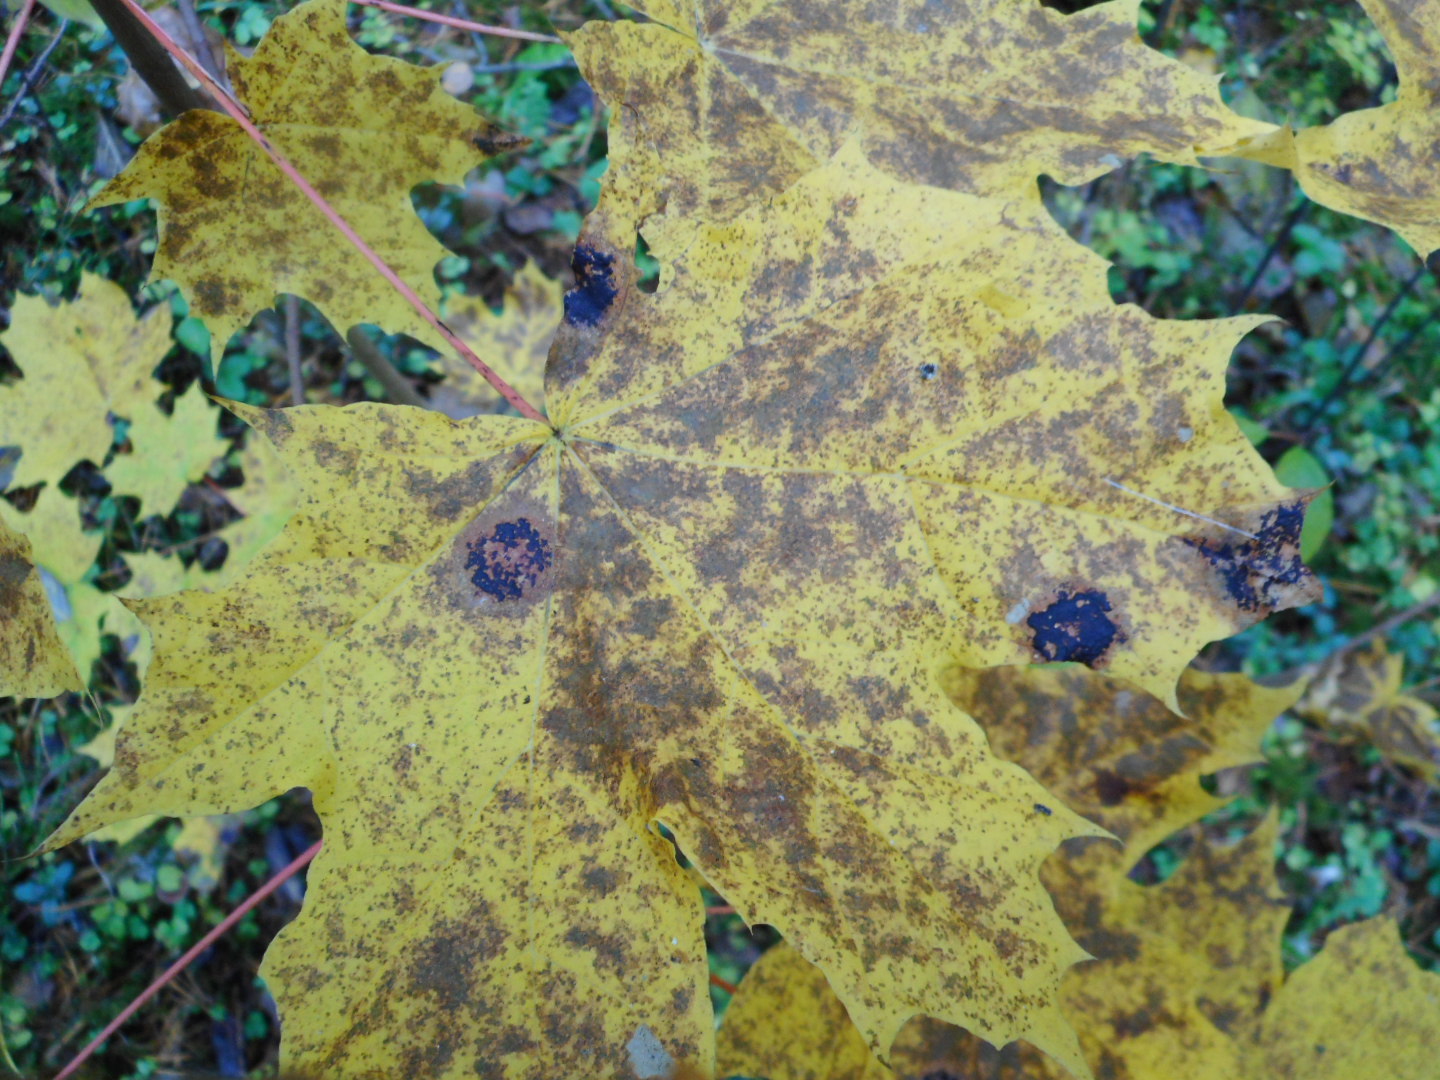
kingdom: Fungi
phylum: Ascomycota
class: Leotiomycetes
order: Rhytismatales
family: Rhytismataceae
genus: Rhytisma
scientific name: Rhytisma acerinum
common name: European tar spot
